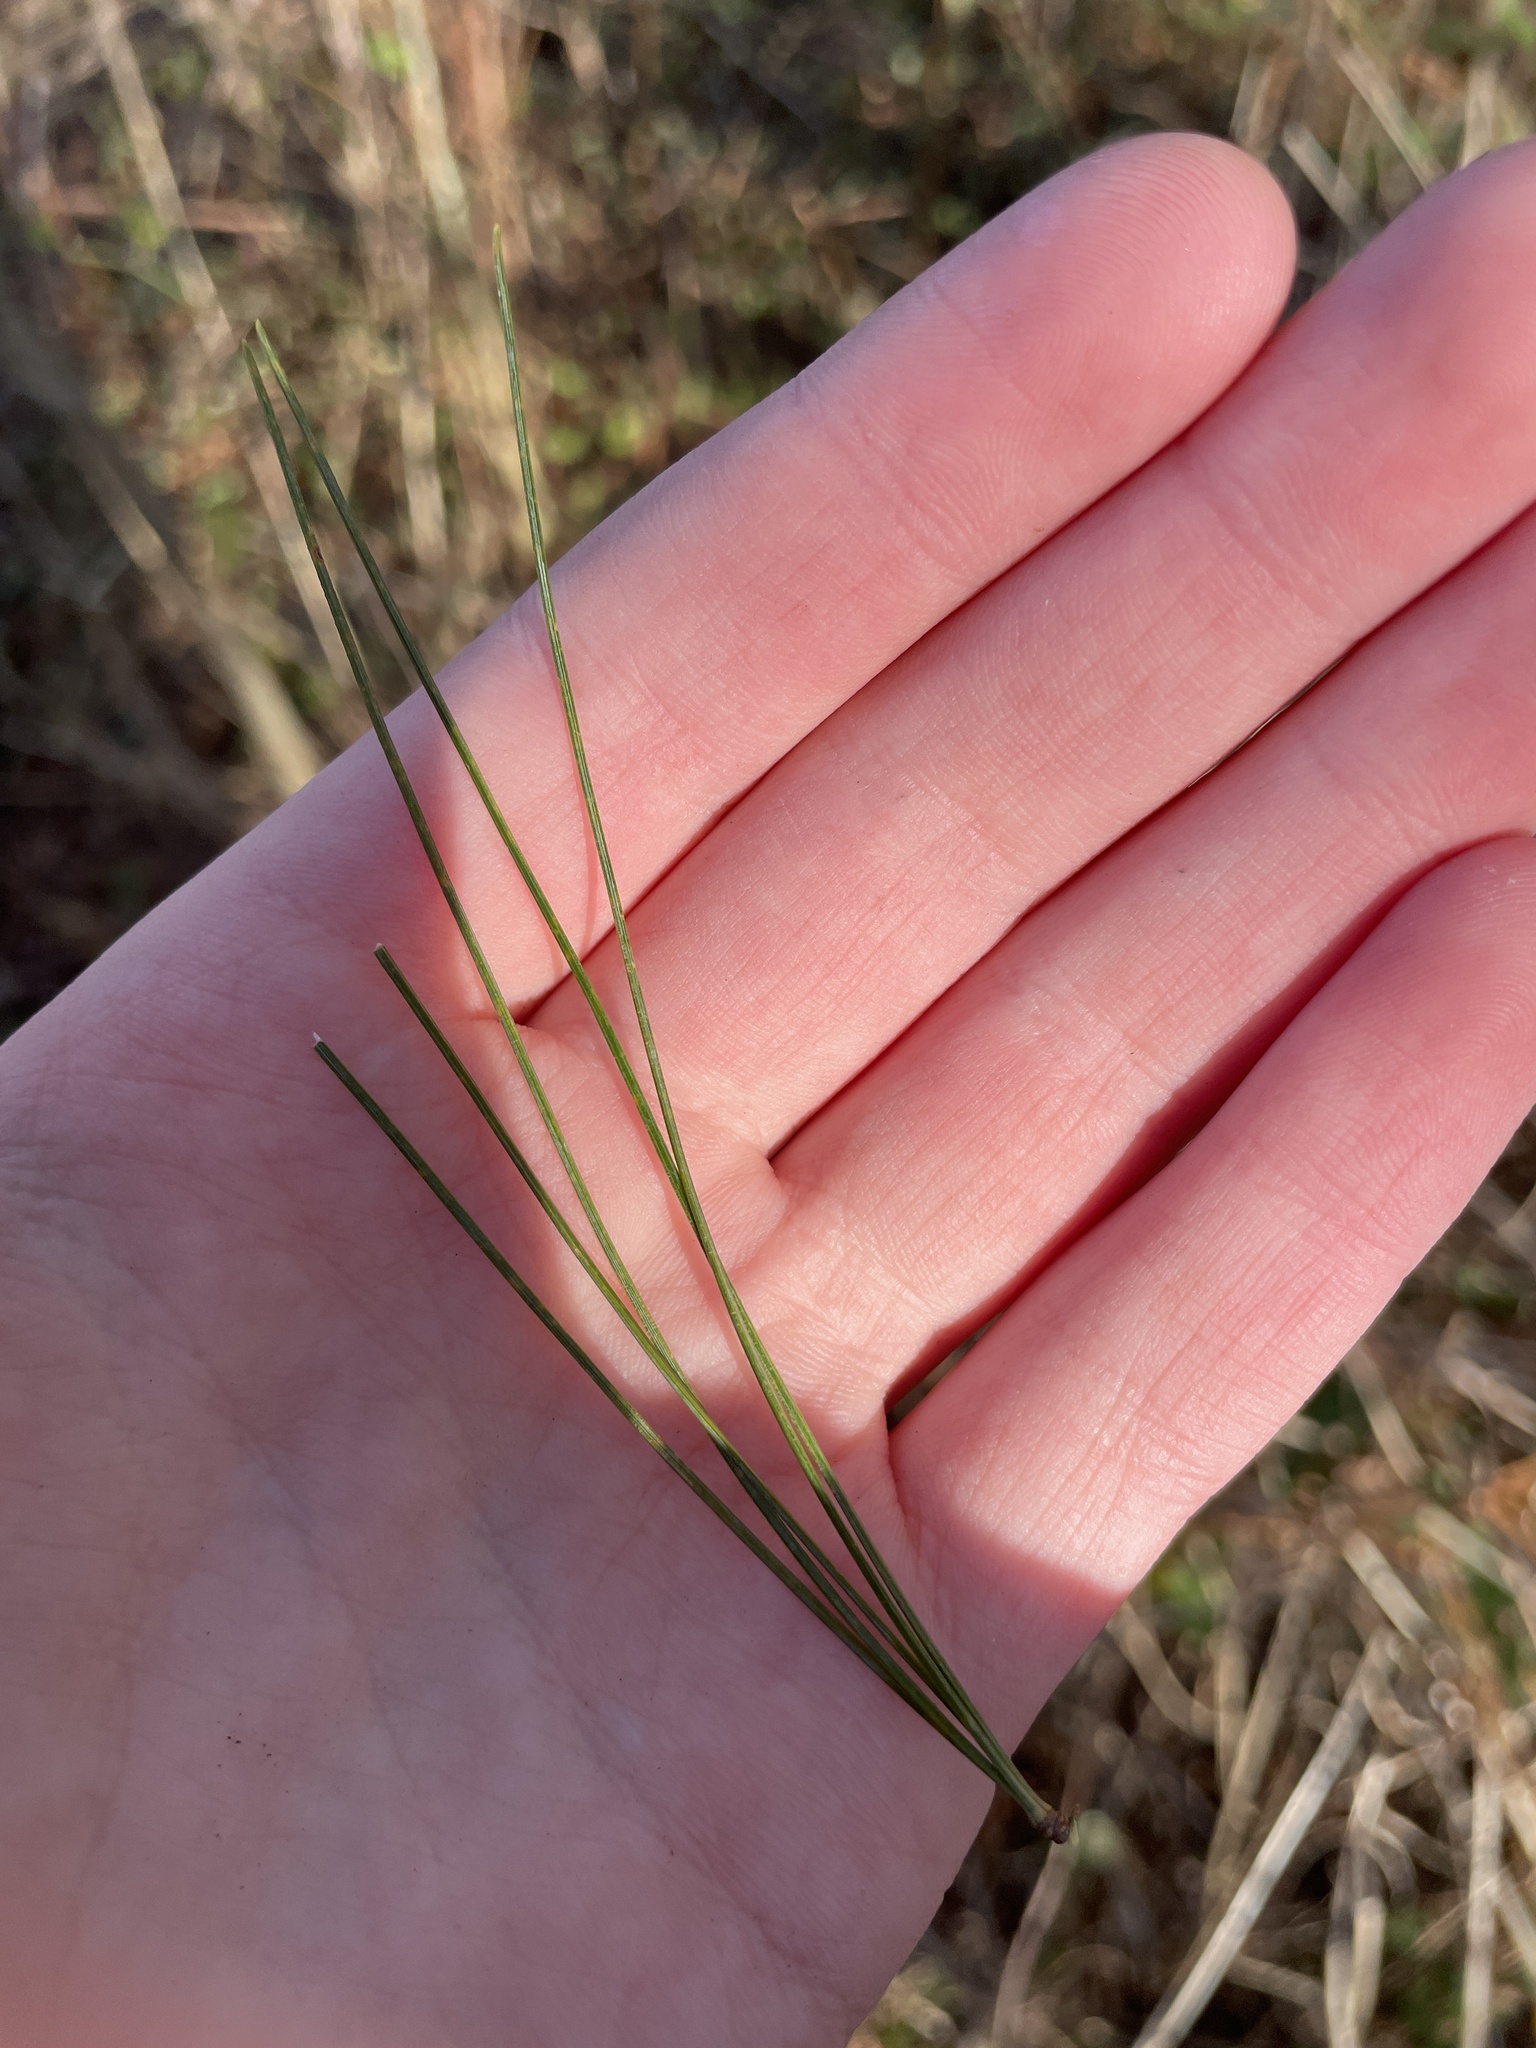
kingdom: Plantae
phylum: Tracheophyta
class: Pinopsida
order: Pinales
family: Pinaceae
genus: Pinus
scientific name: Pinus strobus
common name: Weymouth pine
